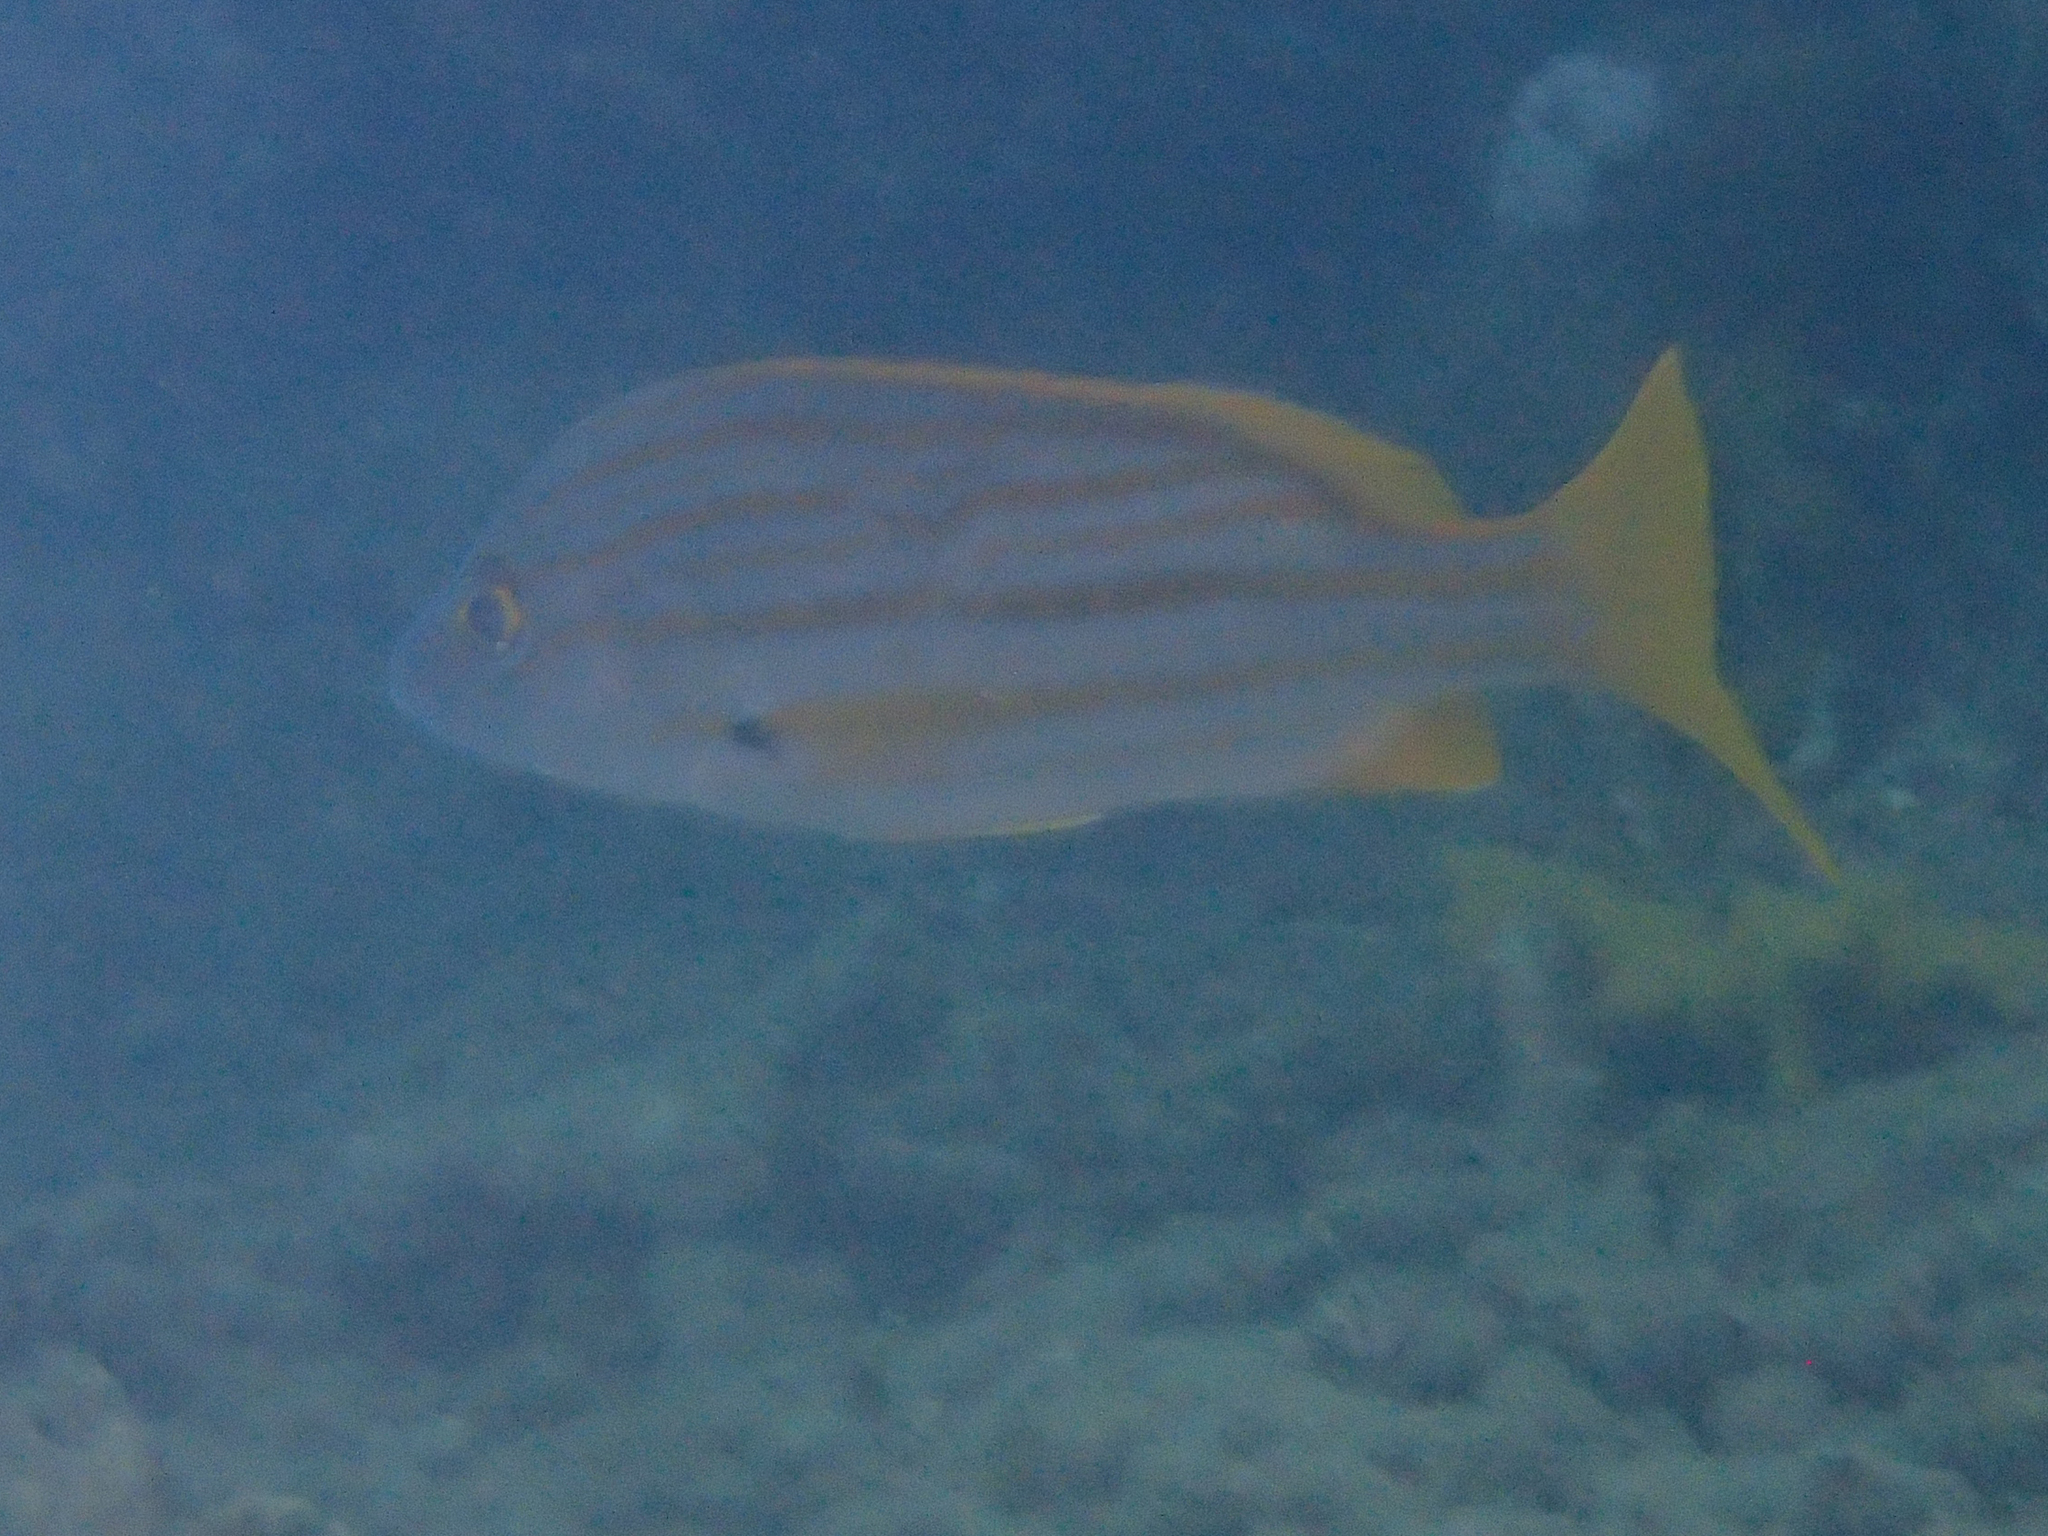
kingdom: Animalia
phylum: Chordata
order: Perciformes
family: Lutjanidae
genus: Lutjanus
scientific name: Lutjanus carponotatus
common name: Spanish flag
